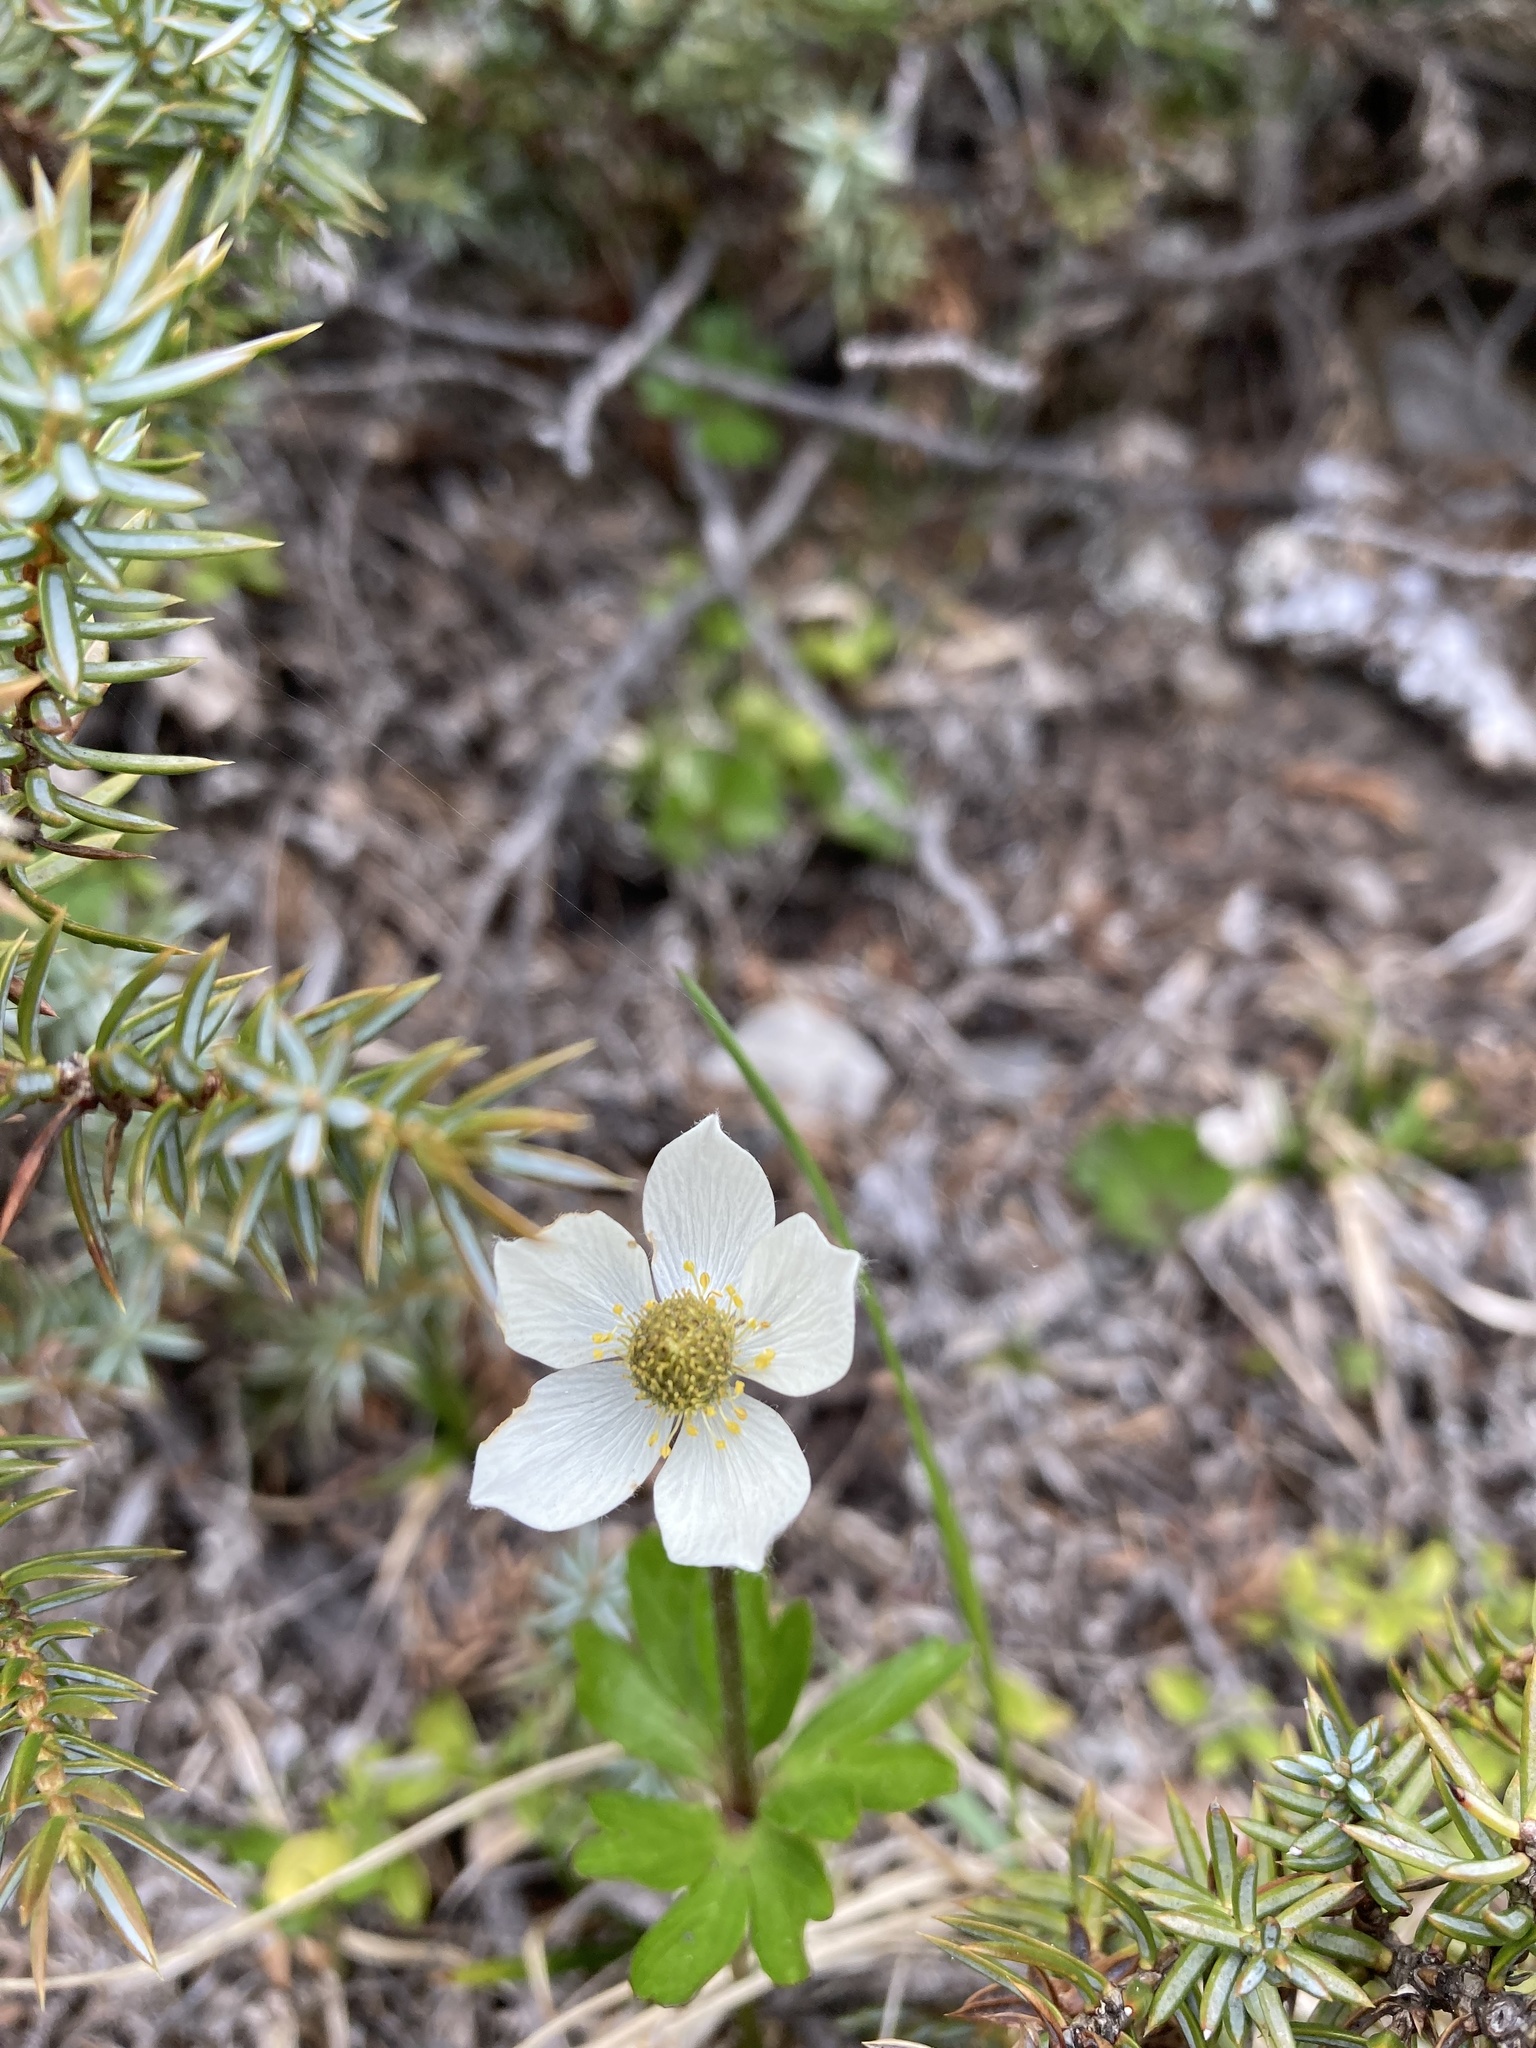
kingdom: Plantae
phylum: Tracheophyta
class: Magnoliopsida
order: Ranunculales
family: Ranunculaceae
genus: Anemone
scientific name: Anemone parviflora
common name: Northern anemone
